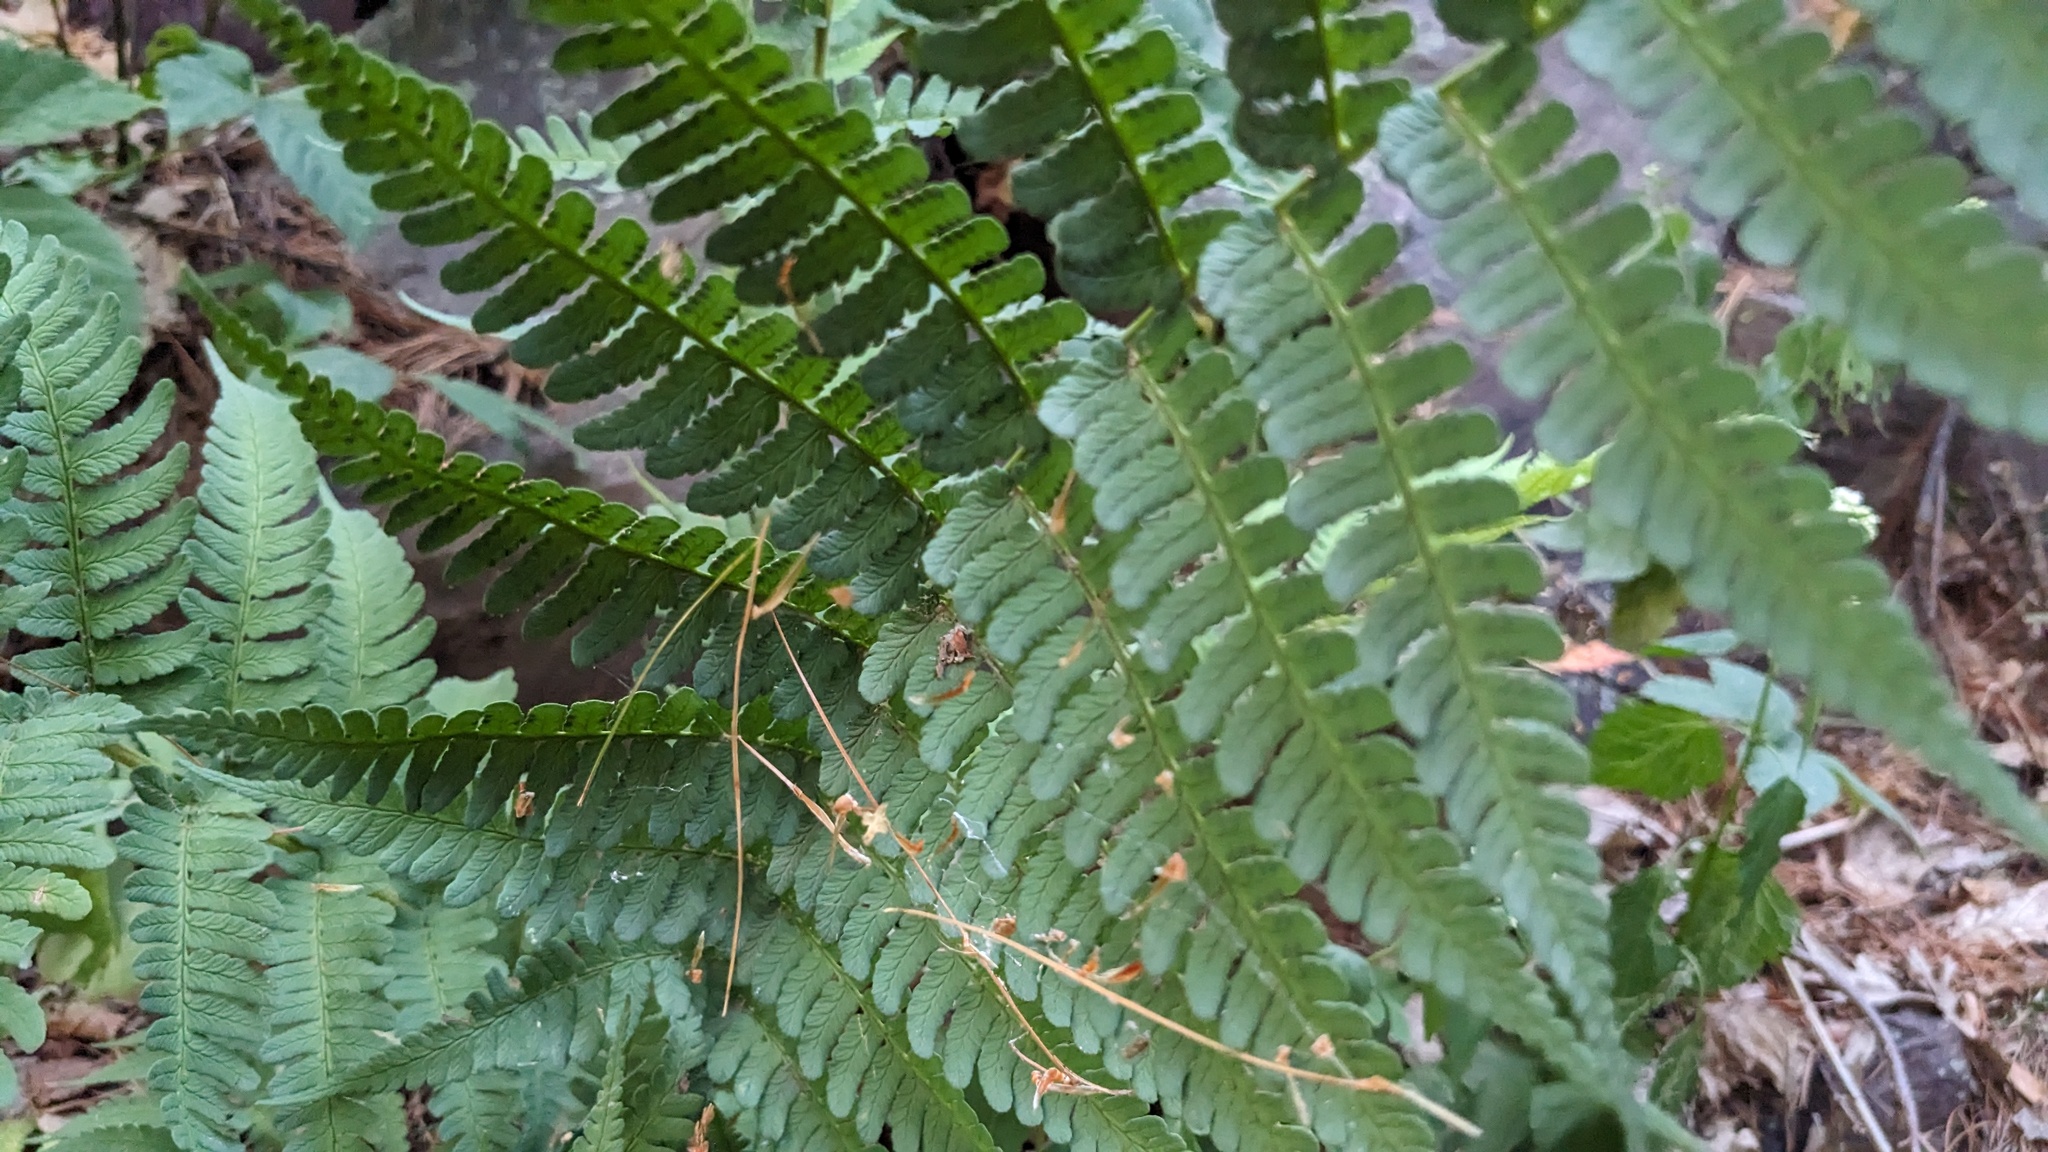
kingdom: Plantae
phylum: Tracheophyta
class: Polypodiopsida
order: Polypodiales
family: Dryopteridaceae
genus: Dryopteris
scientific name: Dryopteris marginalis
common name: Marginal wood fern
